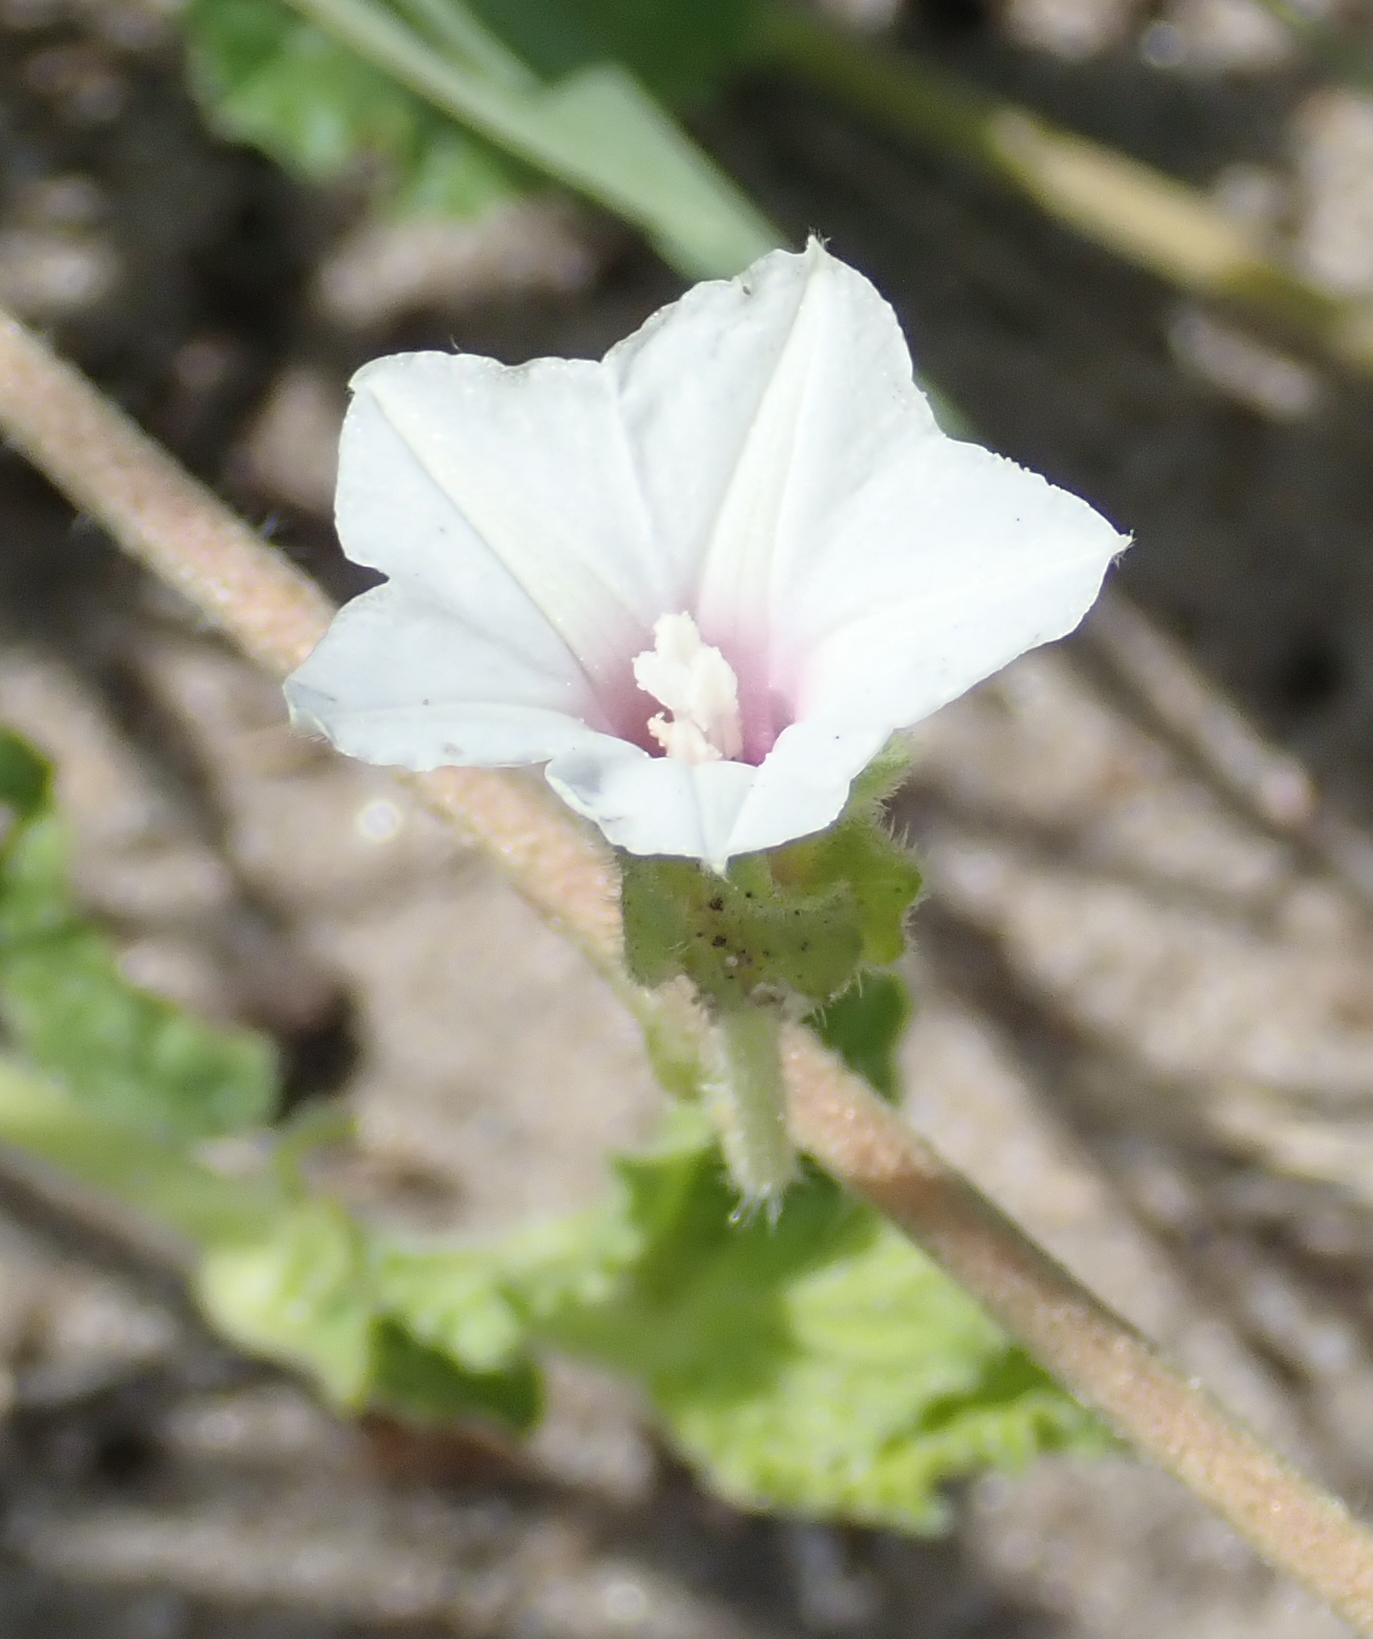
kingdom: Plantae
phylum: Tracheophyta
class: Magnoliopsida
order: Solanales
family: Convolvulaceae
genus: Ipomoea
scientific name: Ipomoea hackeliana
